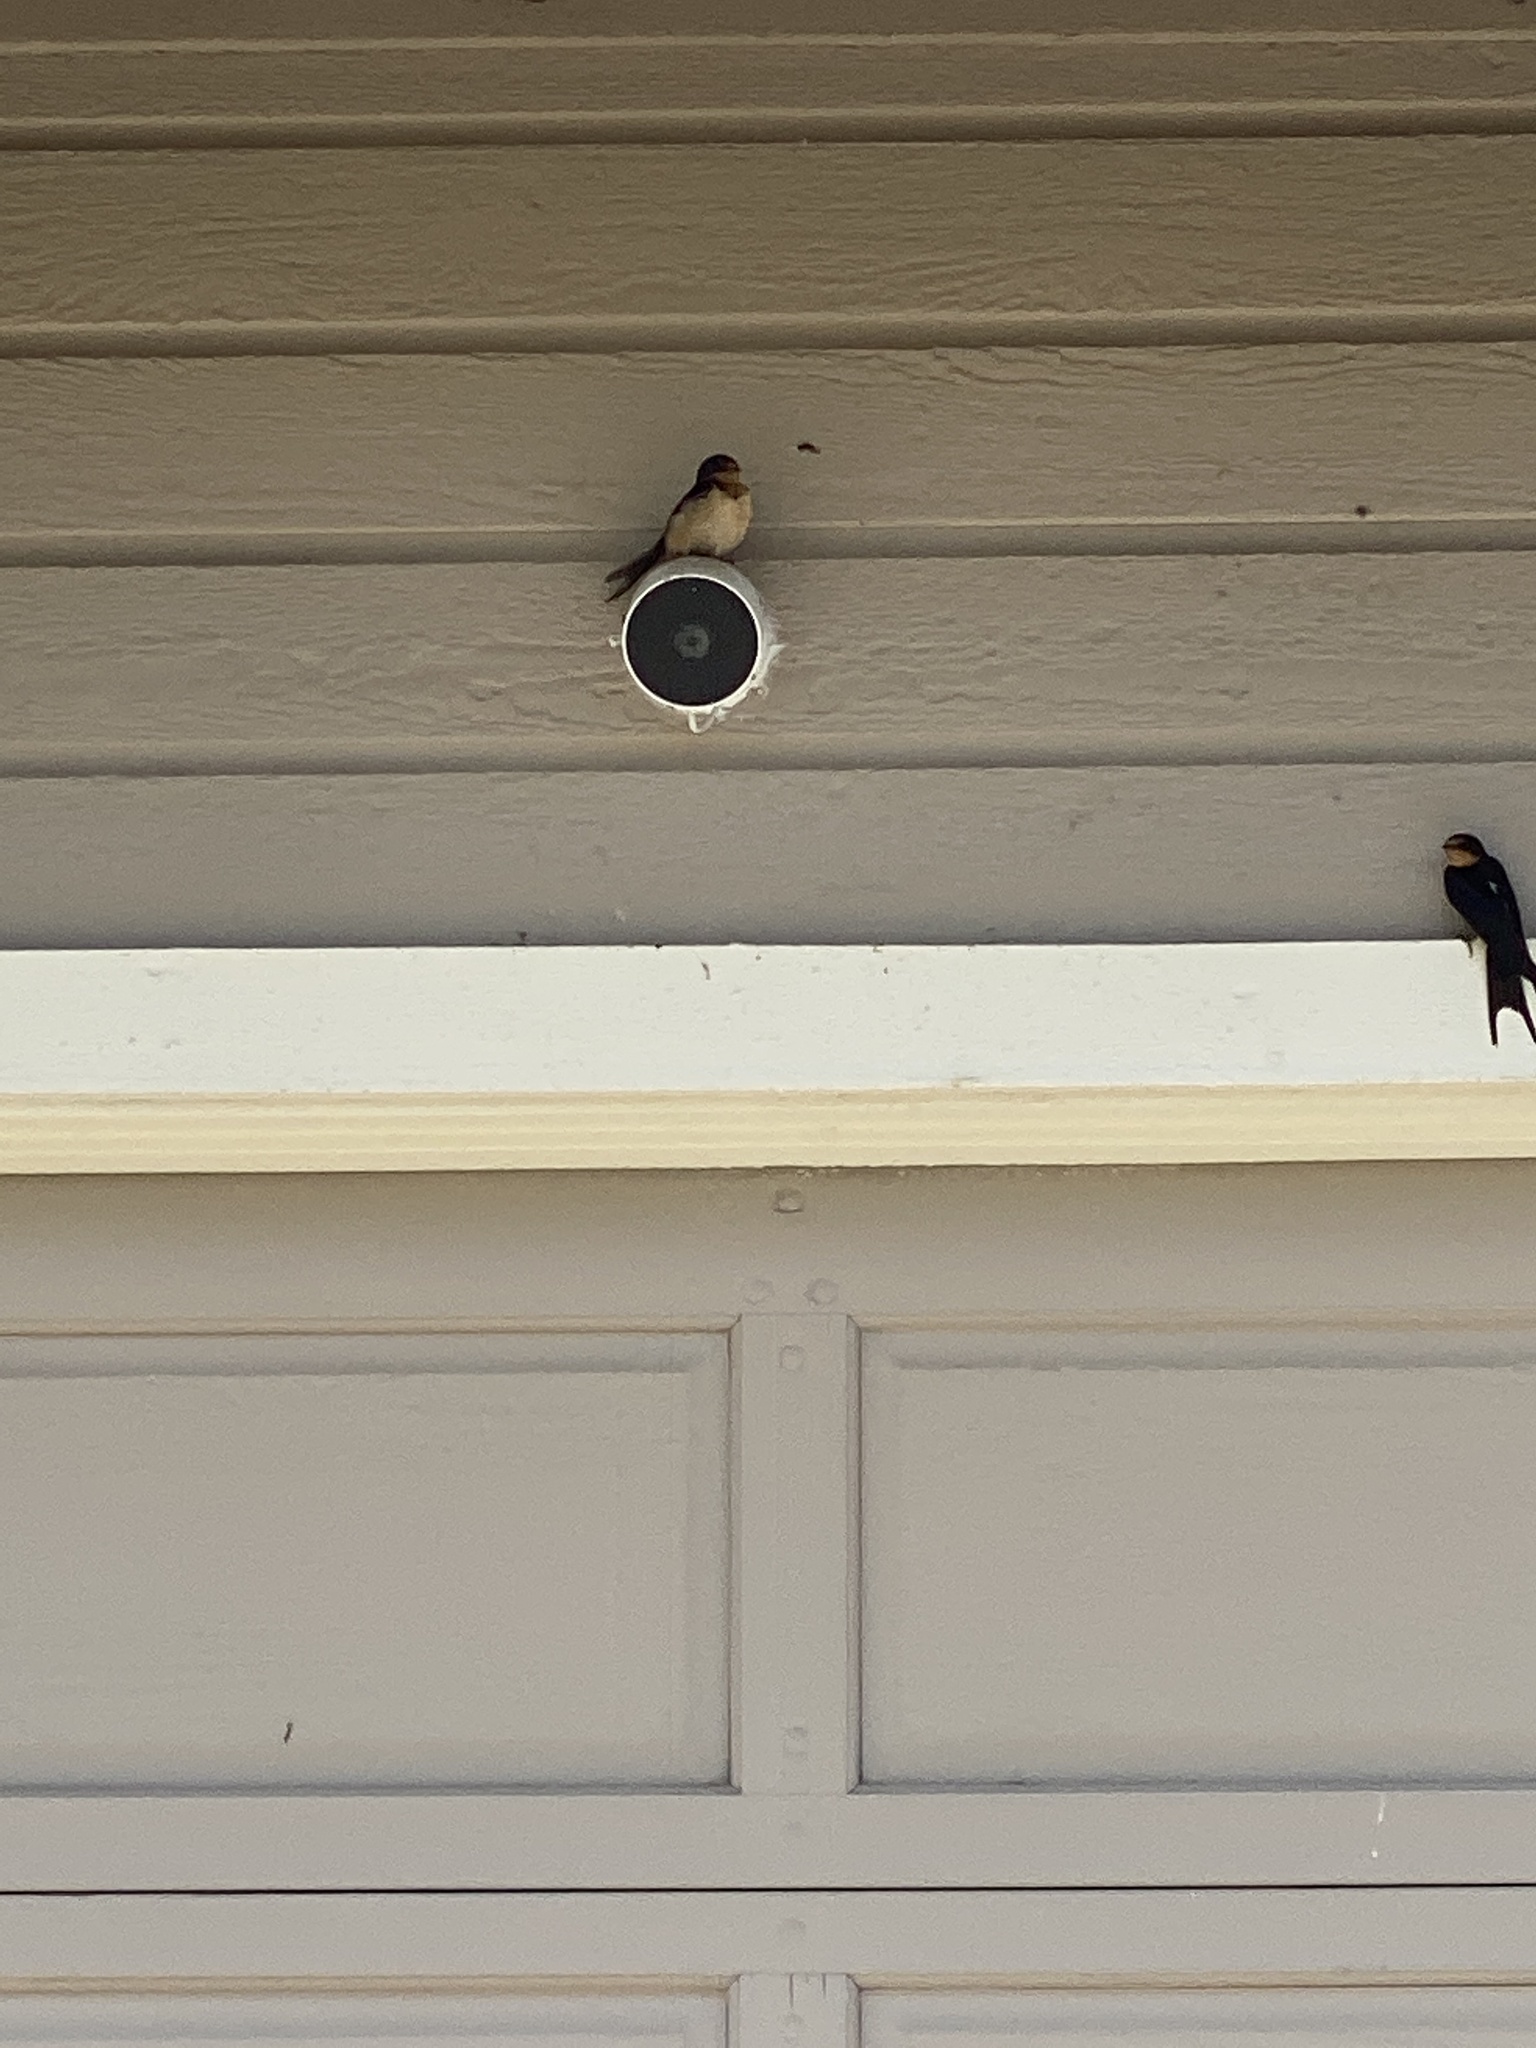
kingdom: Animalia
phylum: Chordata
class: Aves
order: Passeriformes
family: Hirundinidae
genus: Hirundo
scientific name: Hirundo rustica
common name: Barn swallow
